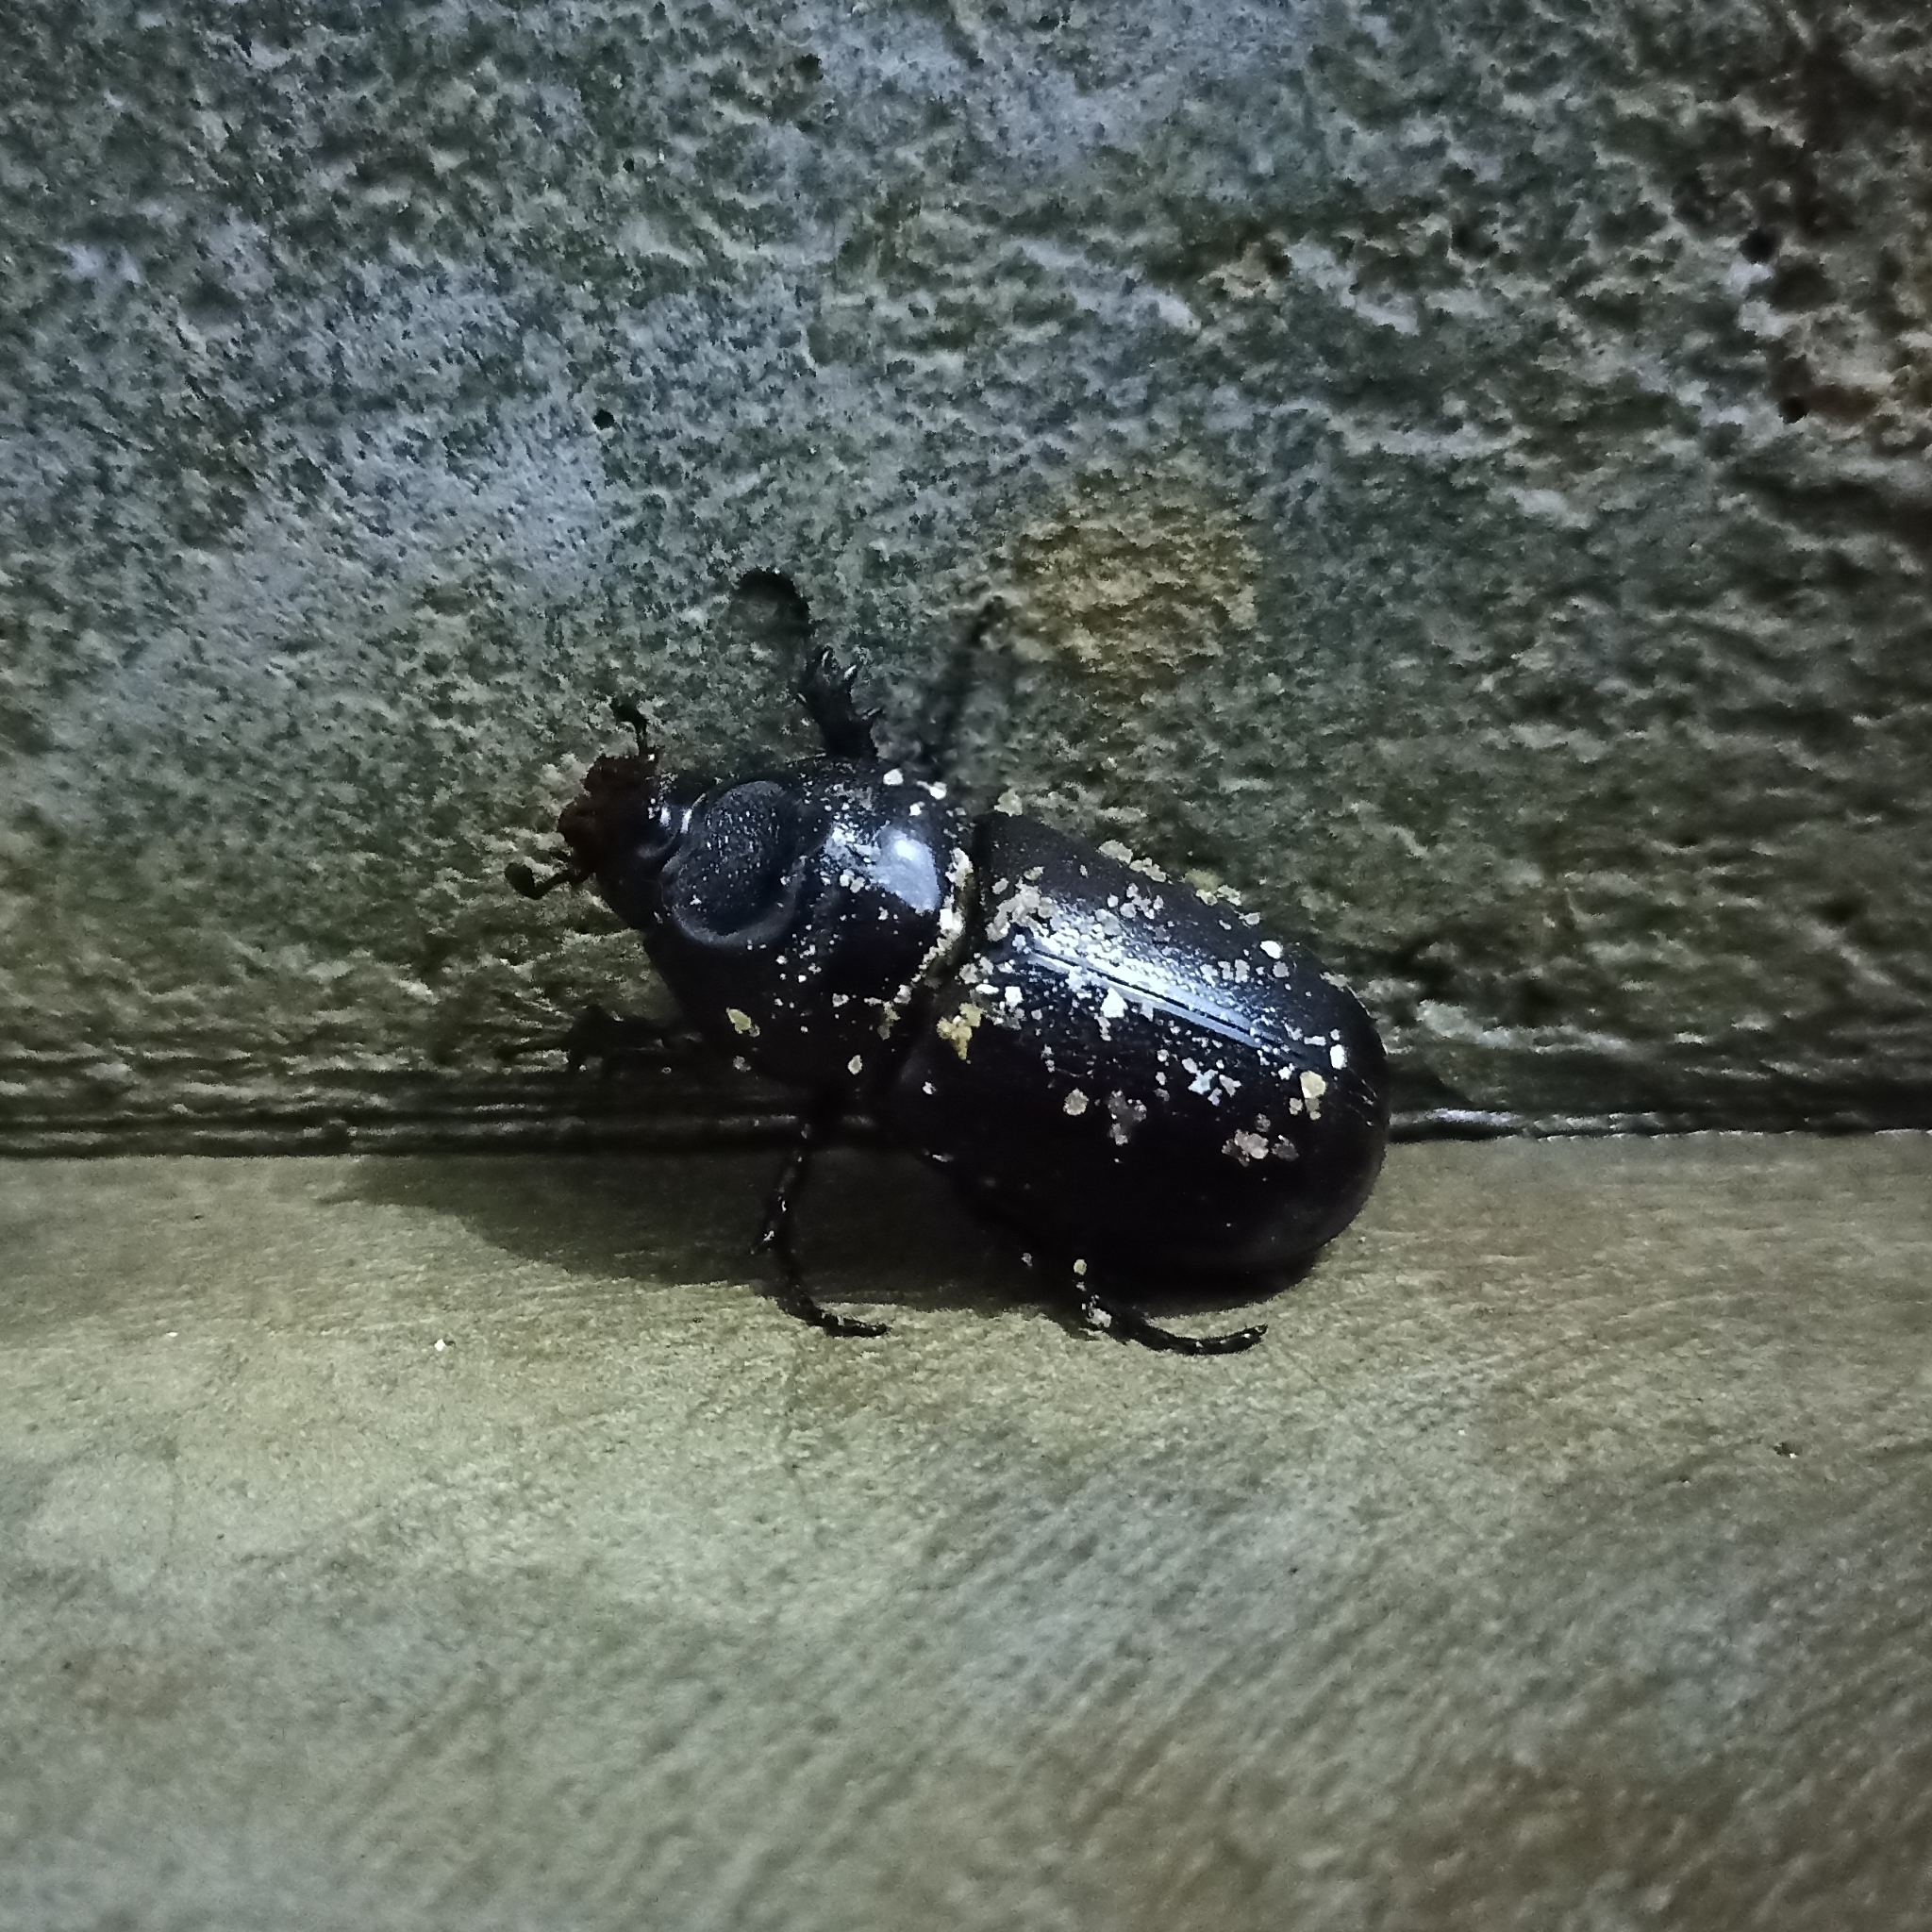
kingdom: Animalia
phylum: Arthropoda
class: Insecta
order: Coleoptera
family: Scarabaeidae
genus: Oryctes
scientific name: Oryctes rhinoceros
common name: Coconut rhinoceros beetle
